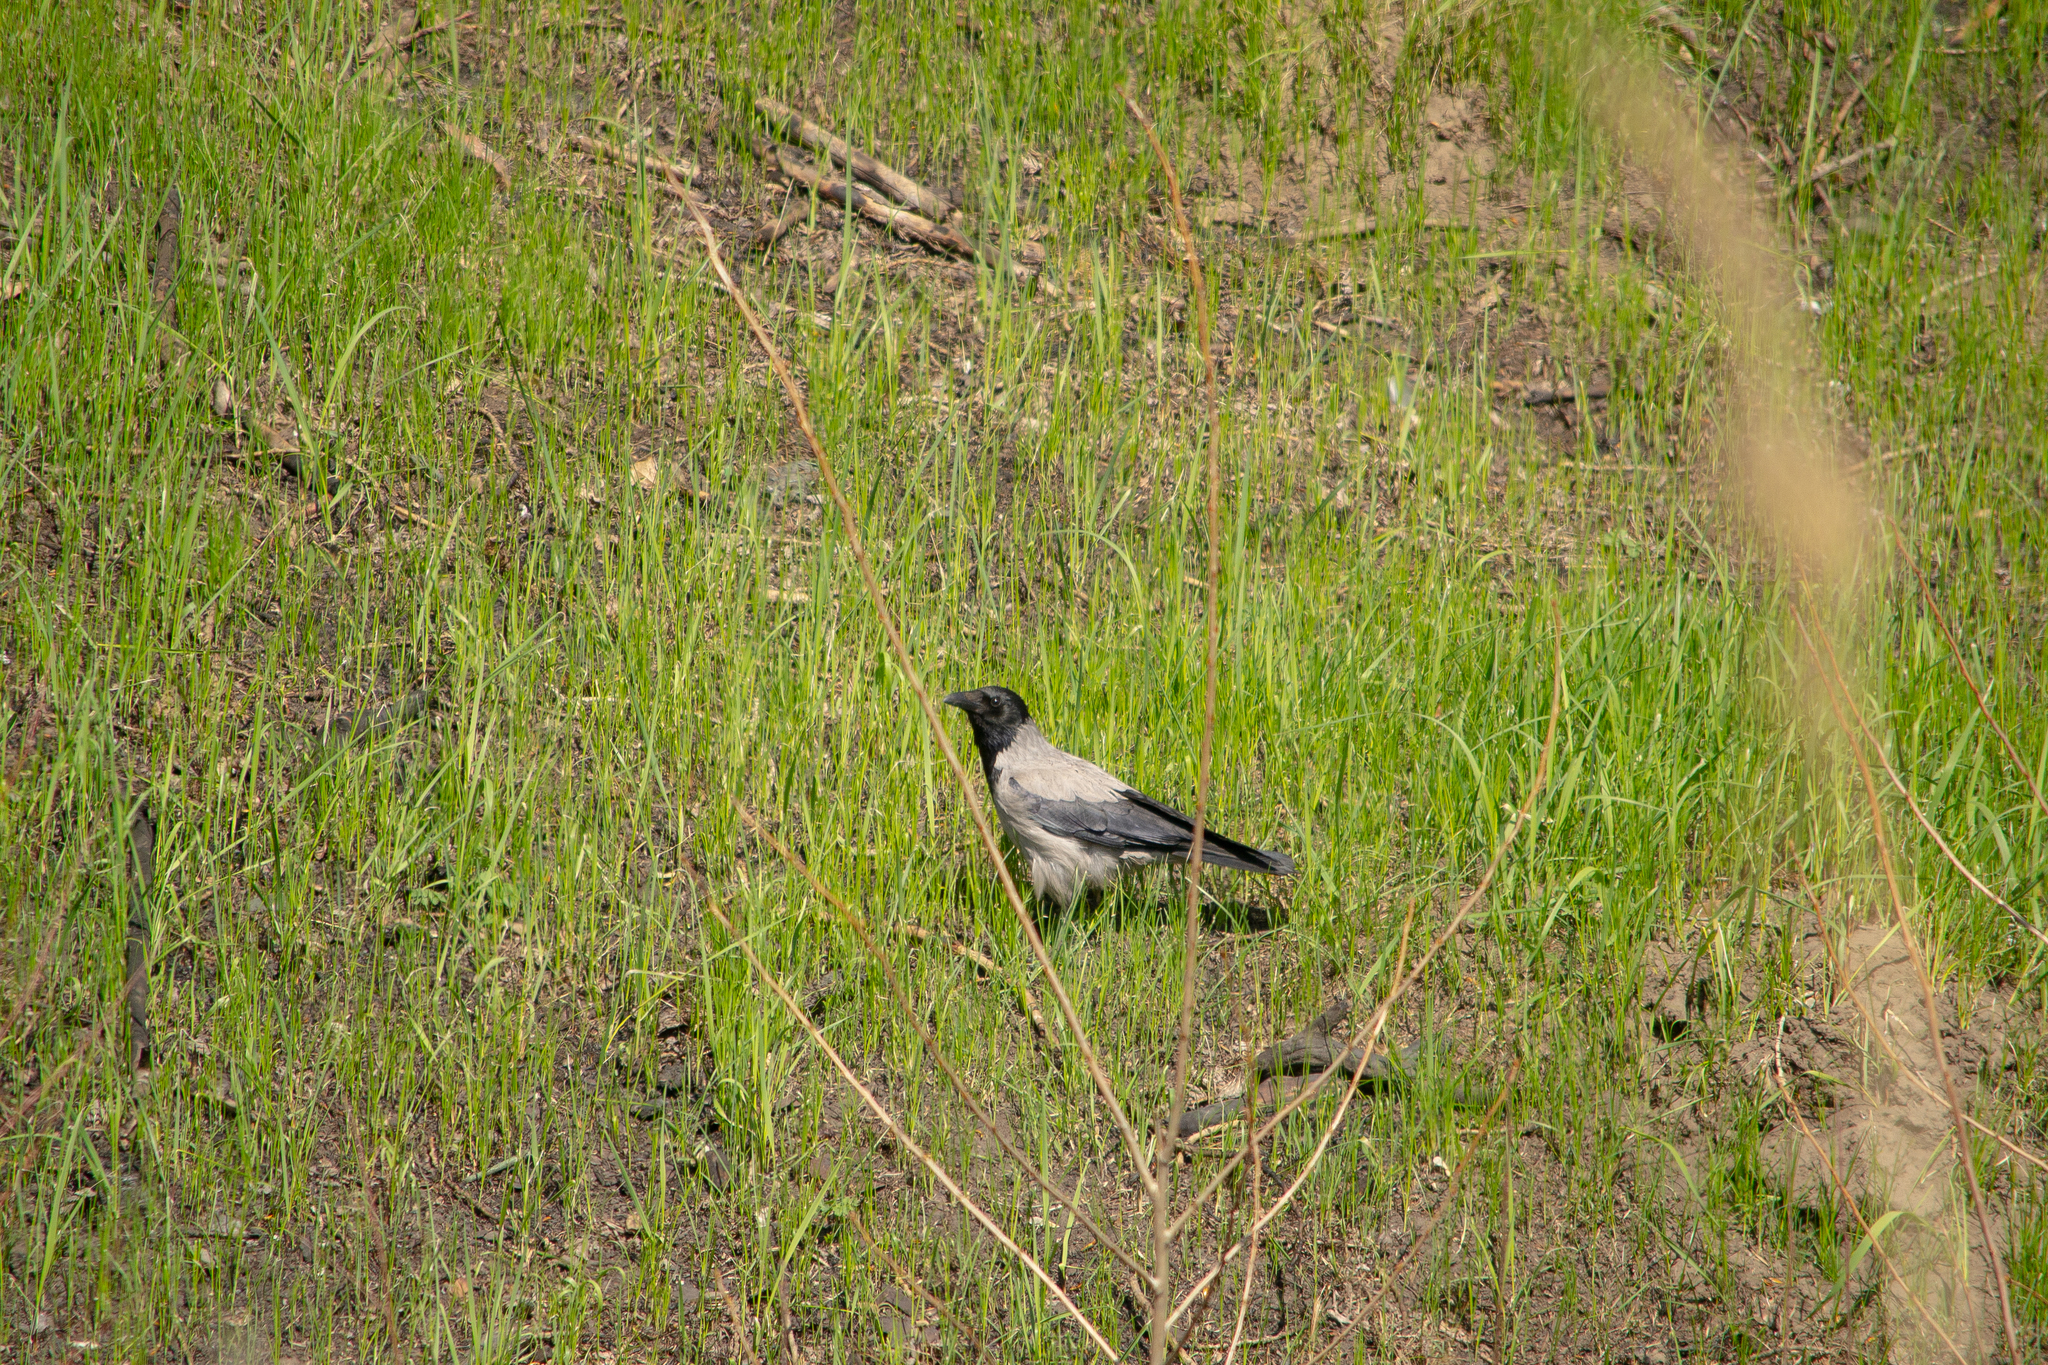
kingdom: Animalia
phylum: Chordata
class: Aves
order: Passeriformes
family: Corvidae
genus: Corvus
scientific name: Corvus cornix
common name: Hooded crow
